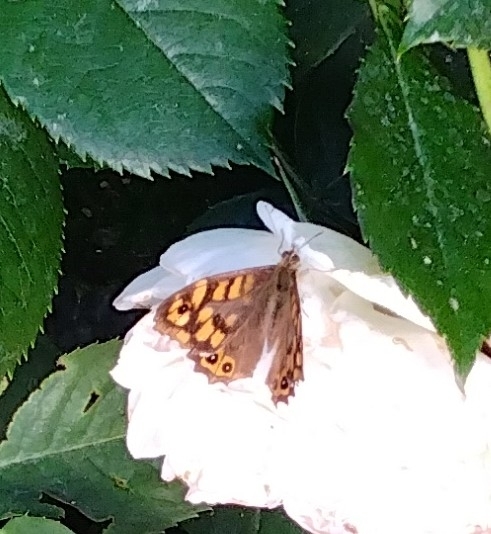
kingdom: Animalia
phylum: Arthropoda
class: Insecta
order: Lepidoptera
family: Nymphalidae
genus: Pararge
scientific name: Pararge aegeria
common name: Speckled wood
